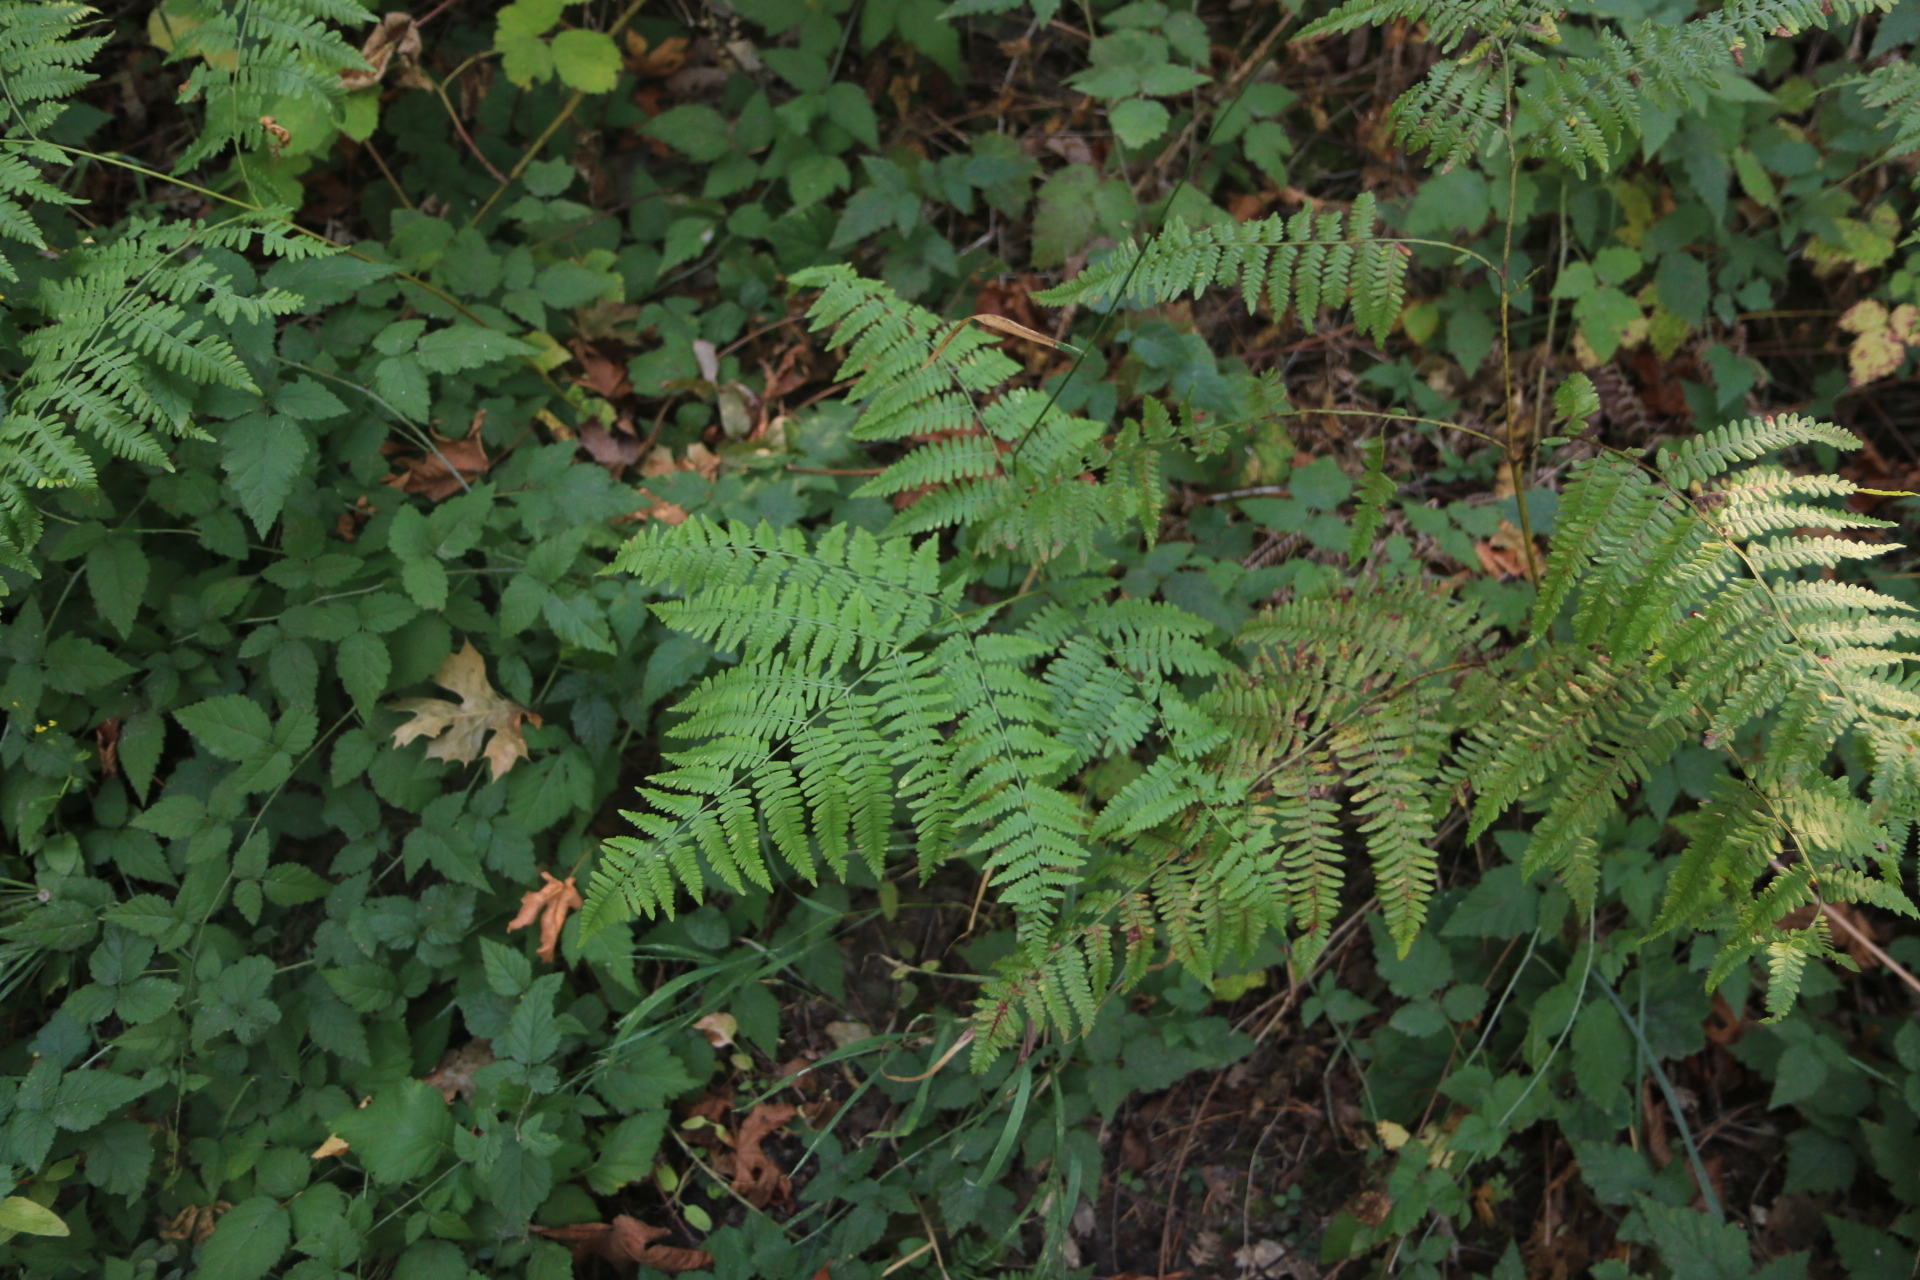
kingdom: Plantae
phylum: Tracheophyta
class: Polypodiopsida
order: Polypodiales
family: Dennstaedtiaceae
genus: Pteridium
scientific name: Pteridium aquilinum
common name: Bracken
